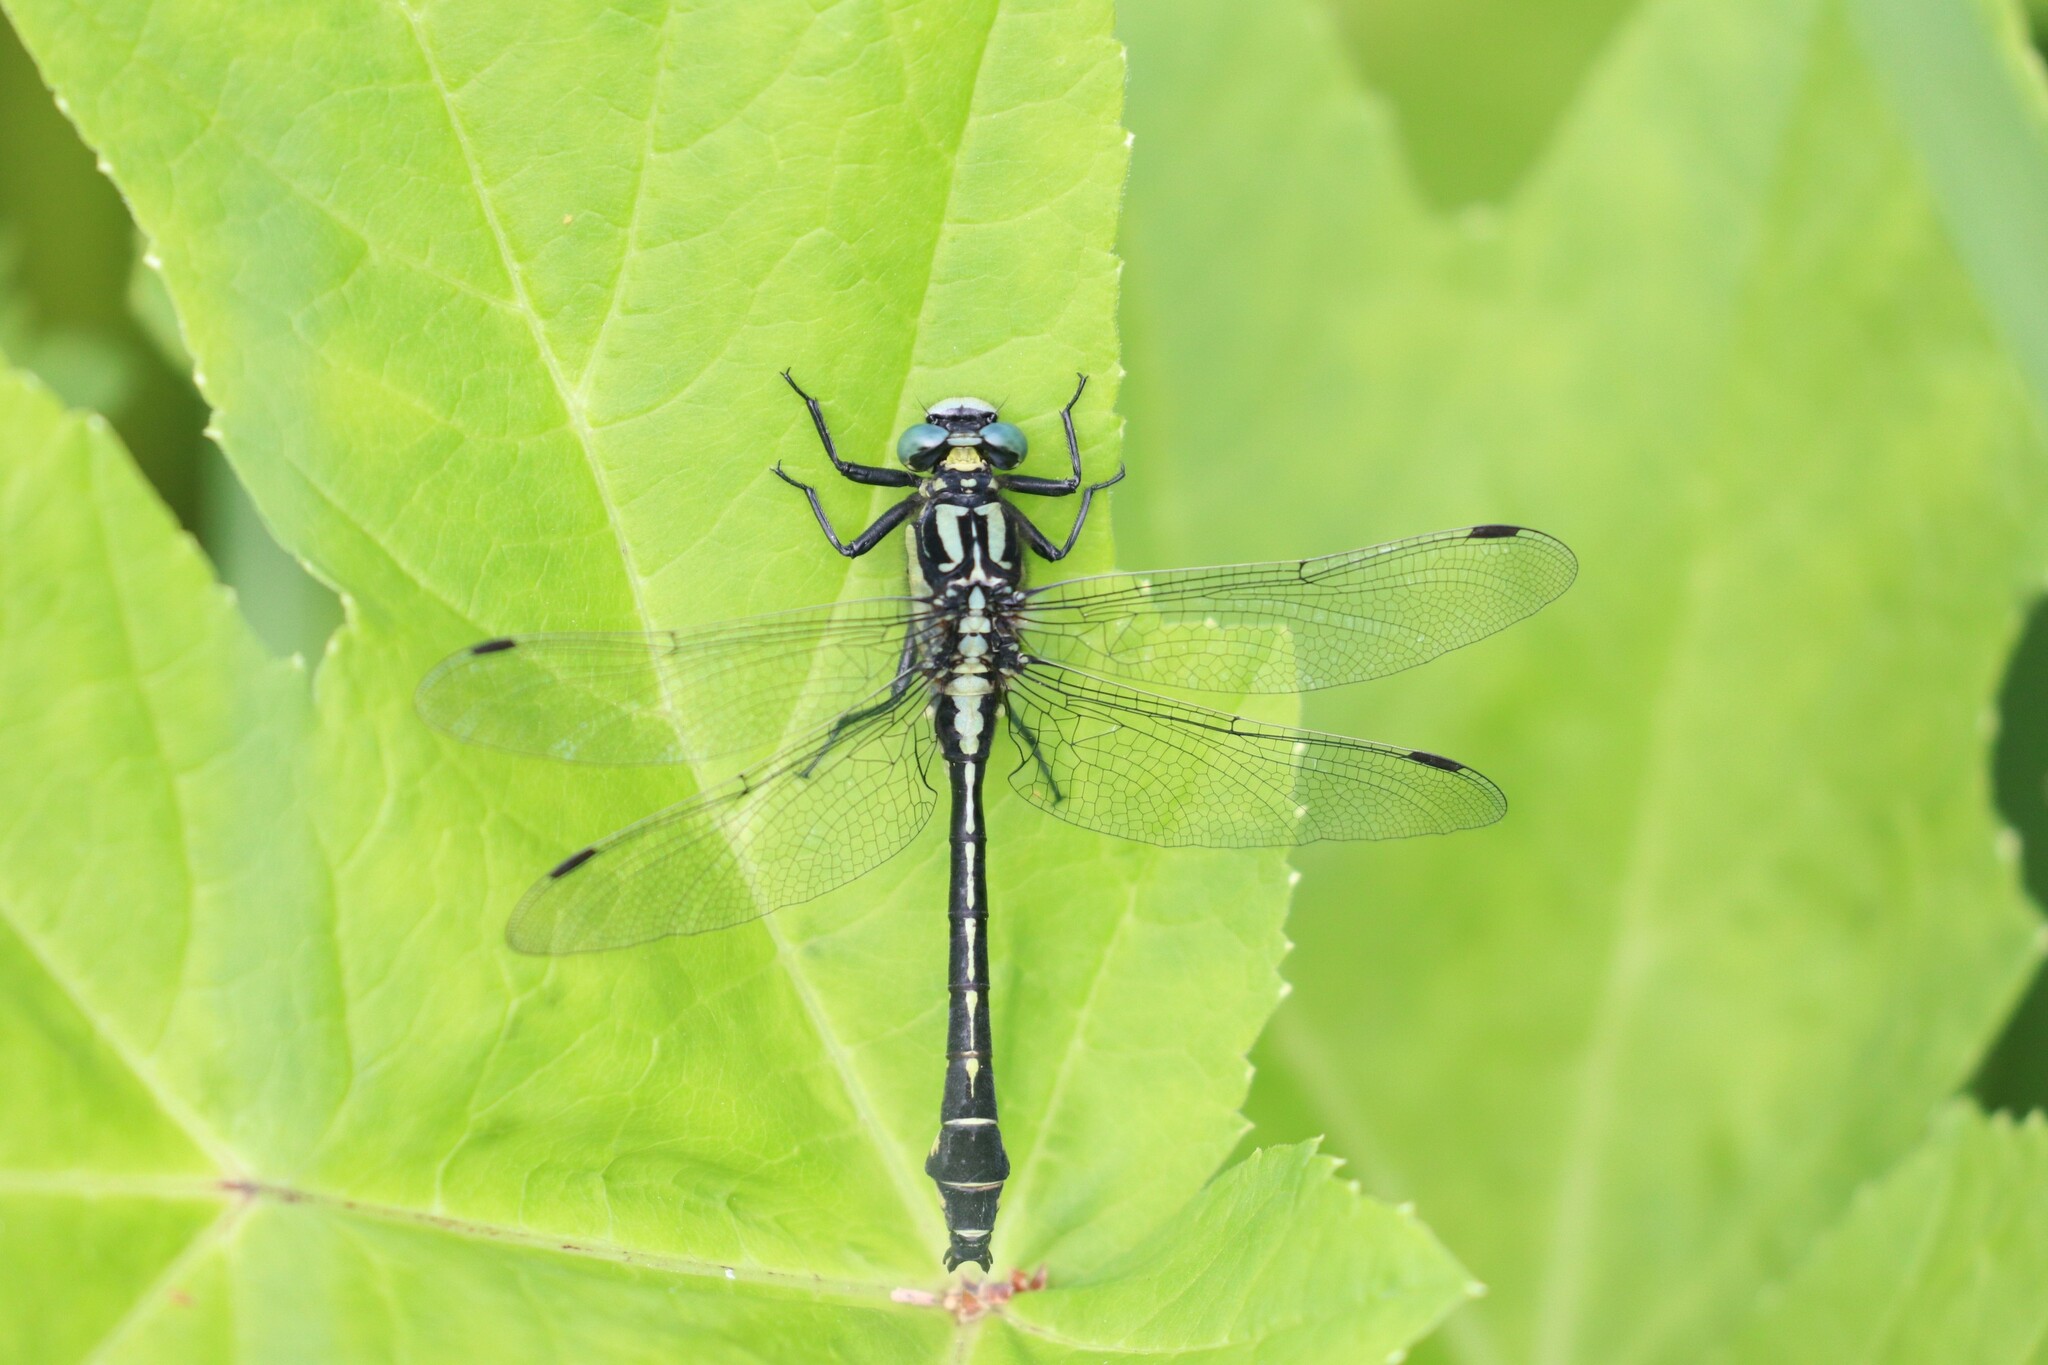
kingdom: Animalia
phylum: Arthropoda
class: Insecta
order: Odonata
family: Gomphidae
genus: Gomphus
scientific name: Gomphus vulgatissimus
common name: Club-tailed dragonfly
